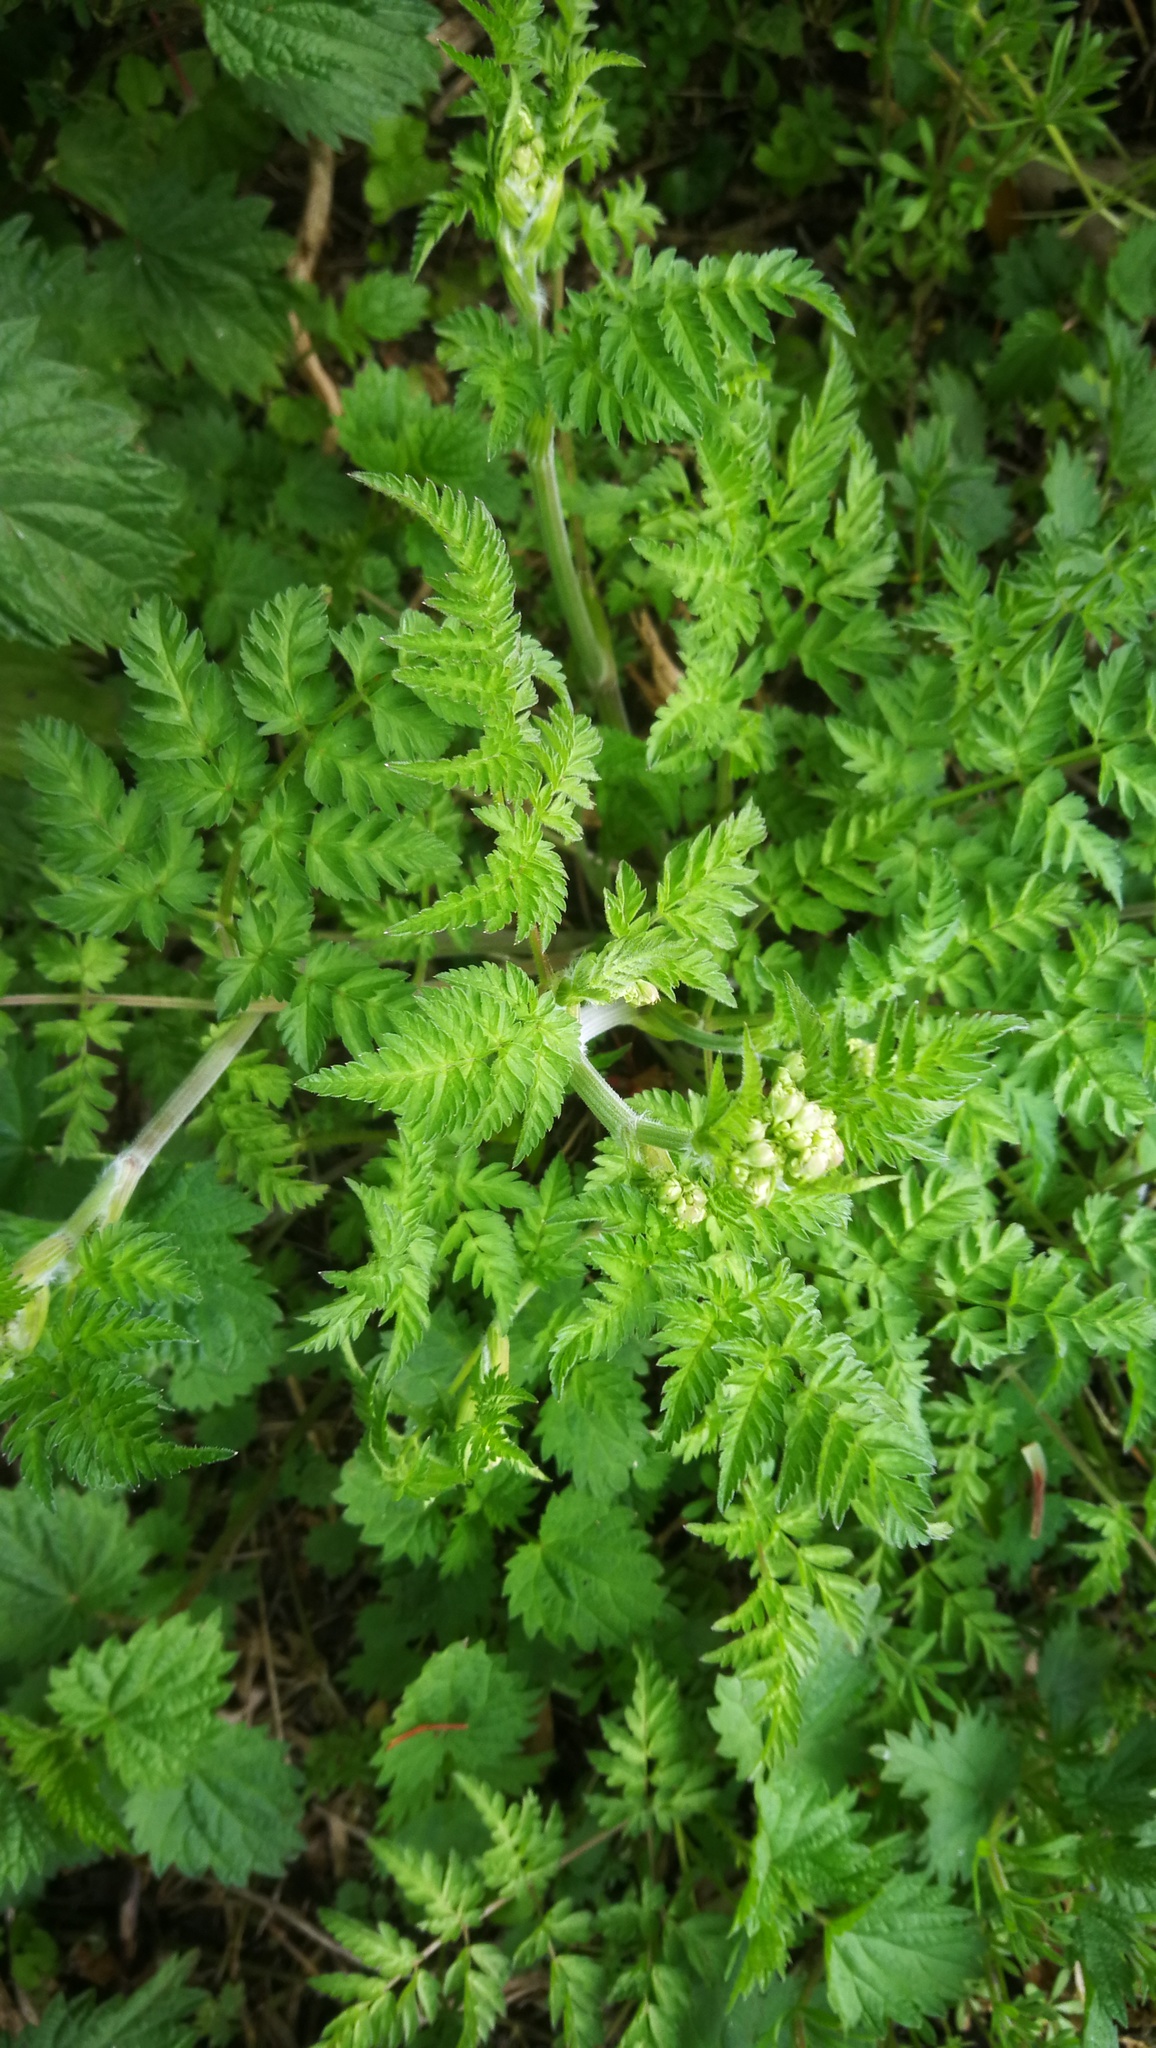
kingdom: Plantae
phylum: Tracheophyta
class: Magnoliopsida
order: Apiales
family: Apiaceae
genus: Anthriscus
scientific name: Anthriscus sylvestris
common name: Cow parsley
